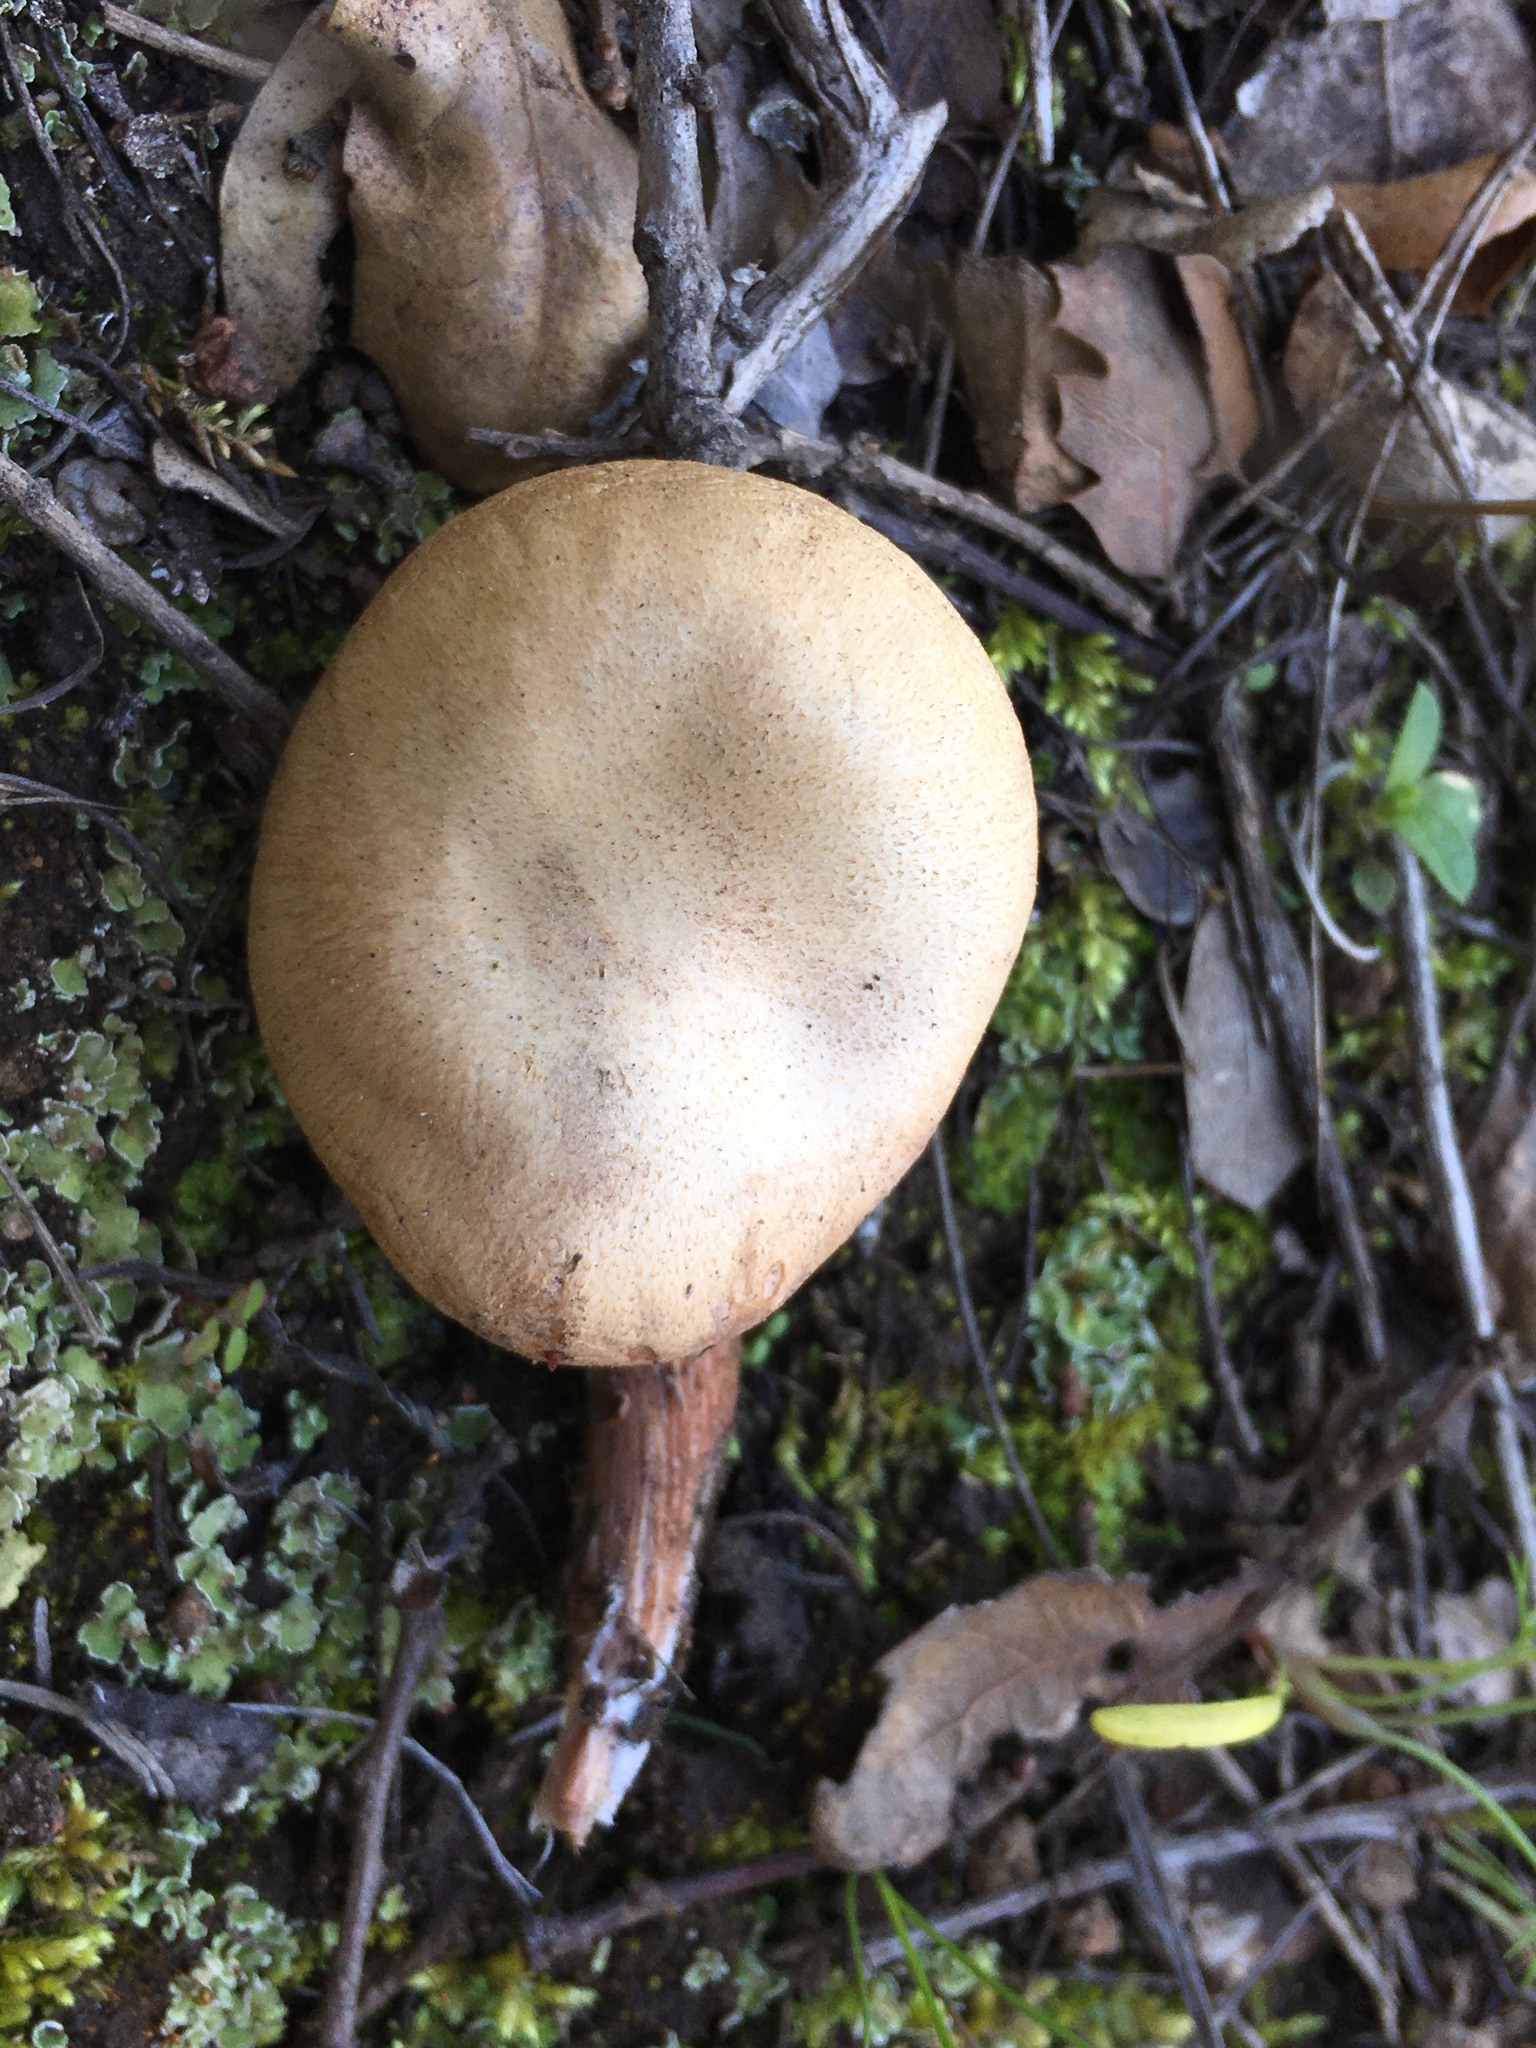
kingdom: Fungi
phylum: Basidiomycota
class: Agaricomycetes
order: Agaricales
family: Hydnangiaceae
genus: Laccaria
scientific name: Laccaria amethysteo-occidentalis
